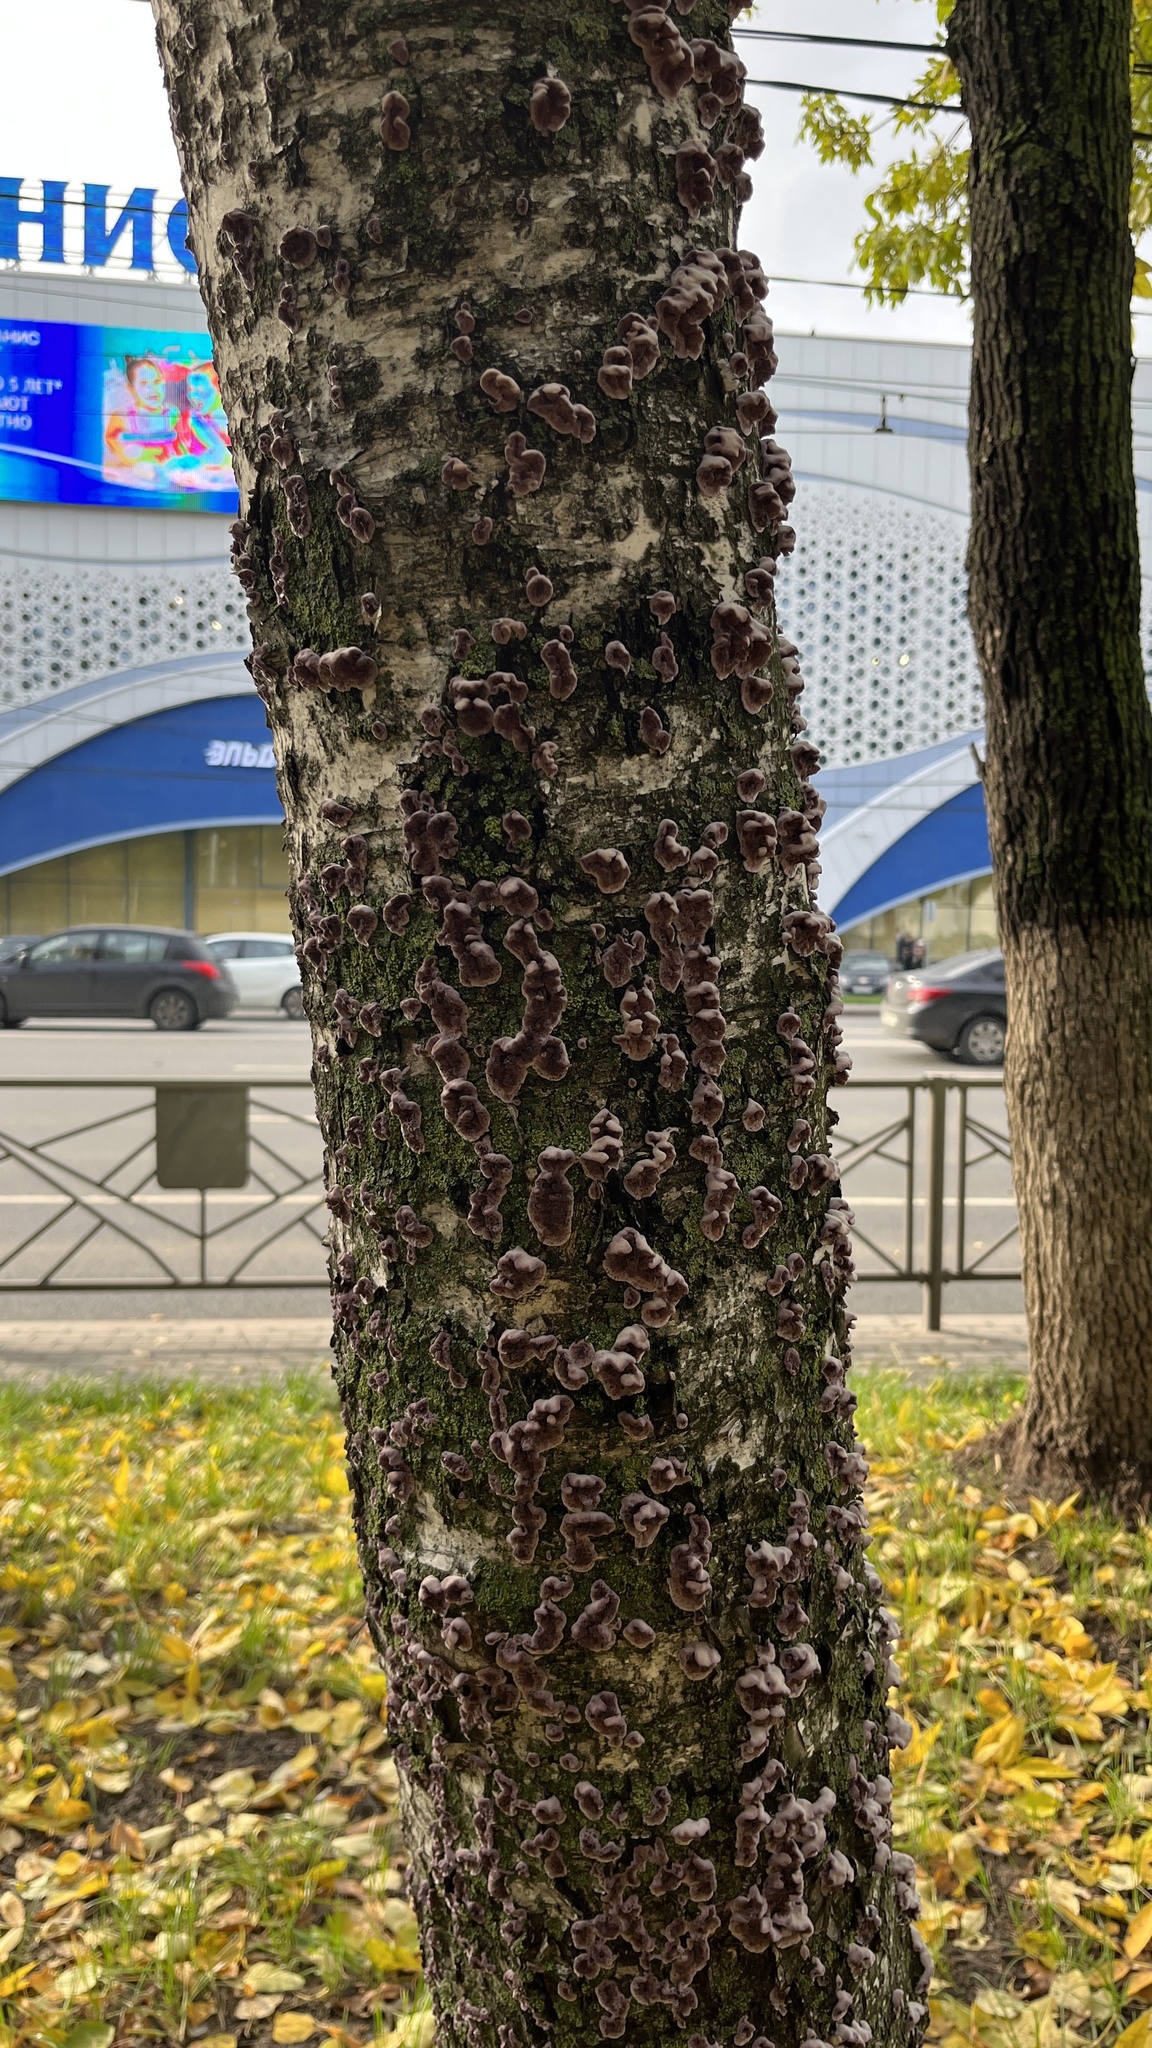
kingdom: Fungi
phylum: Basidiomycota
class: Agaricomycetes
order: Agaricales
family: Cyphellaceae
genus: Chondrostereum
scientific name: Chondrostereum purpureum
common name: Silver leaf disease
